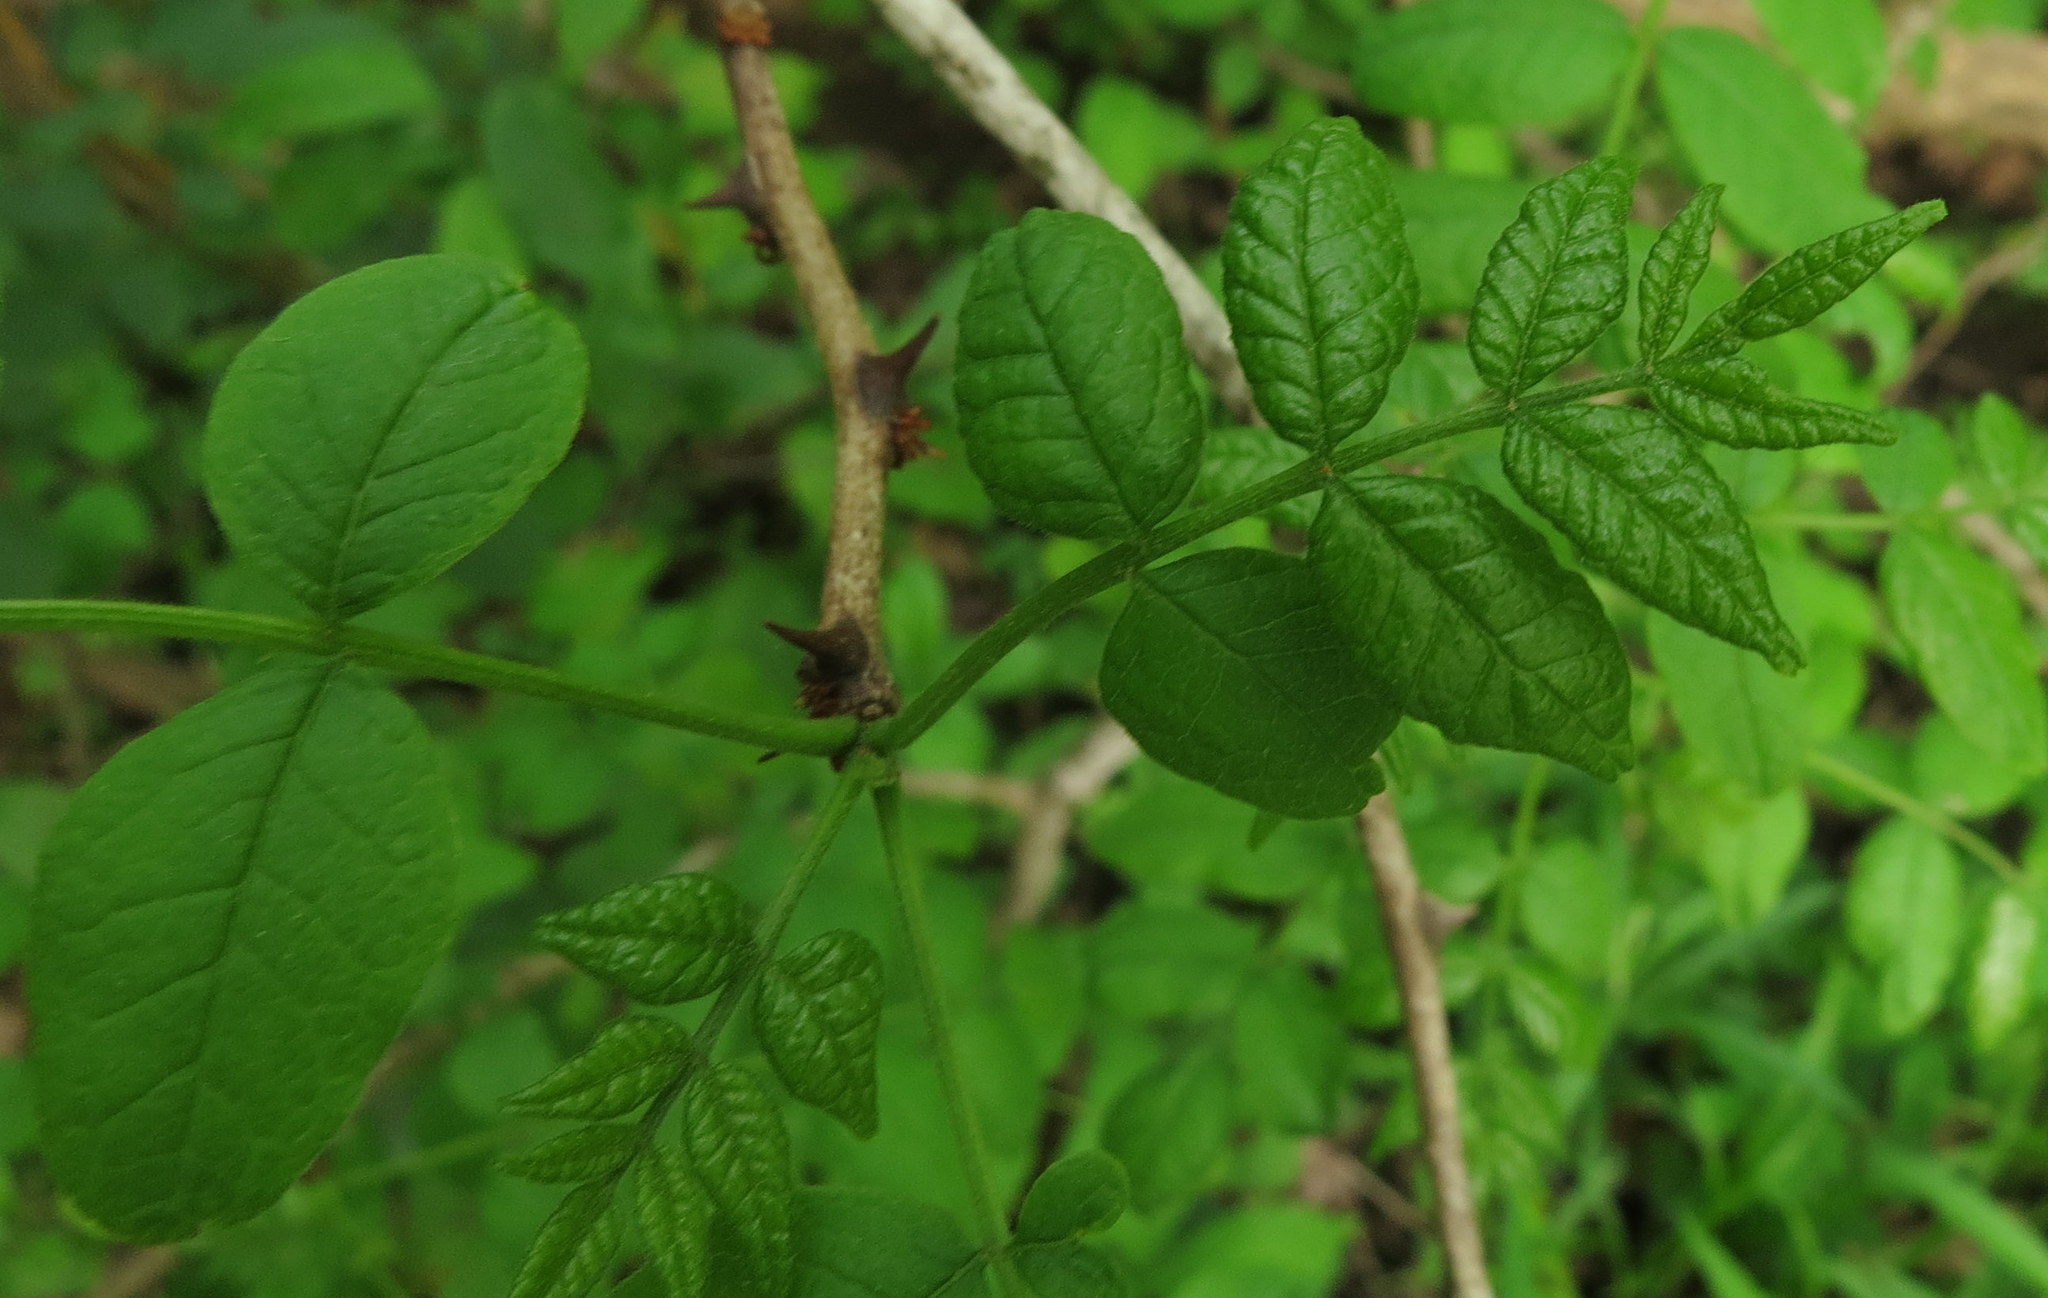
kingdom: Plantae
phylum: Tracheophyta
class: Magnoliopsida
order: Sapindales
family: Rutaceae
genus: Zanthoxylum
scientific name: Zanthoxylum americanum
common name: Northern prickly-ash
